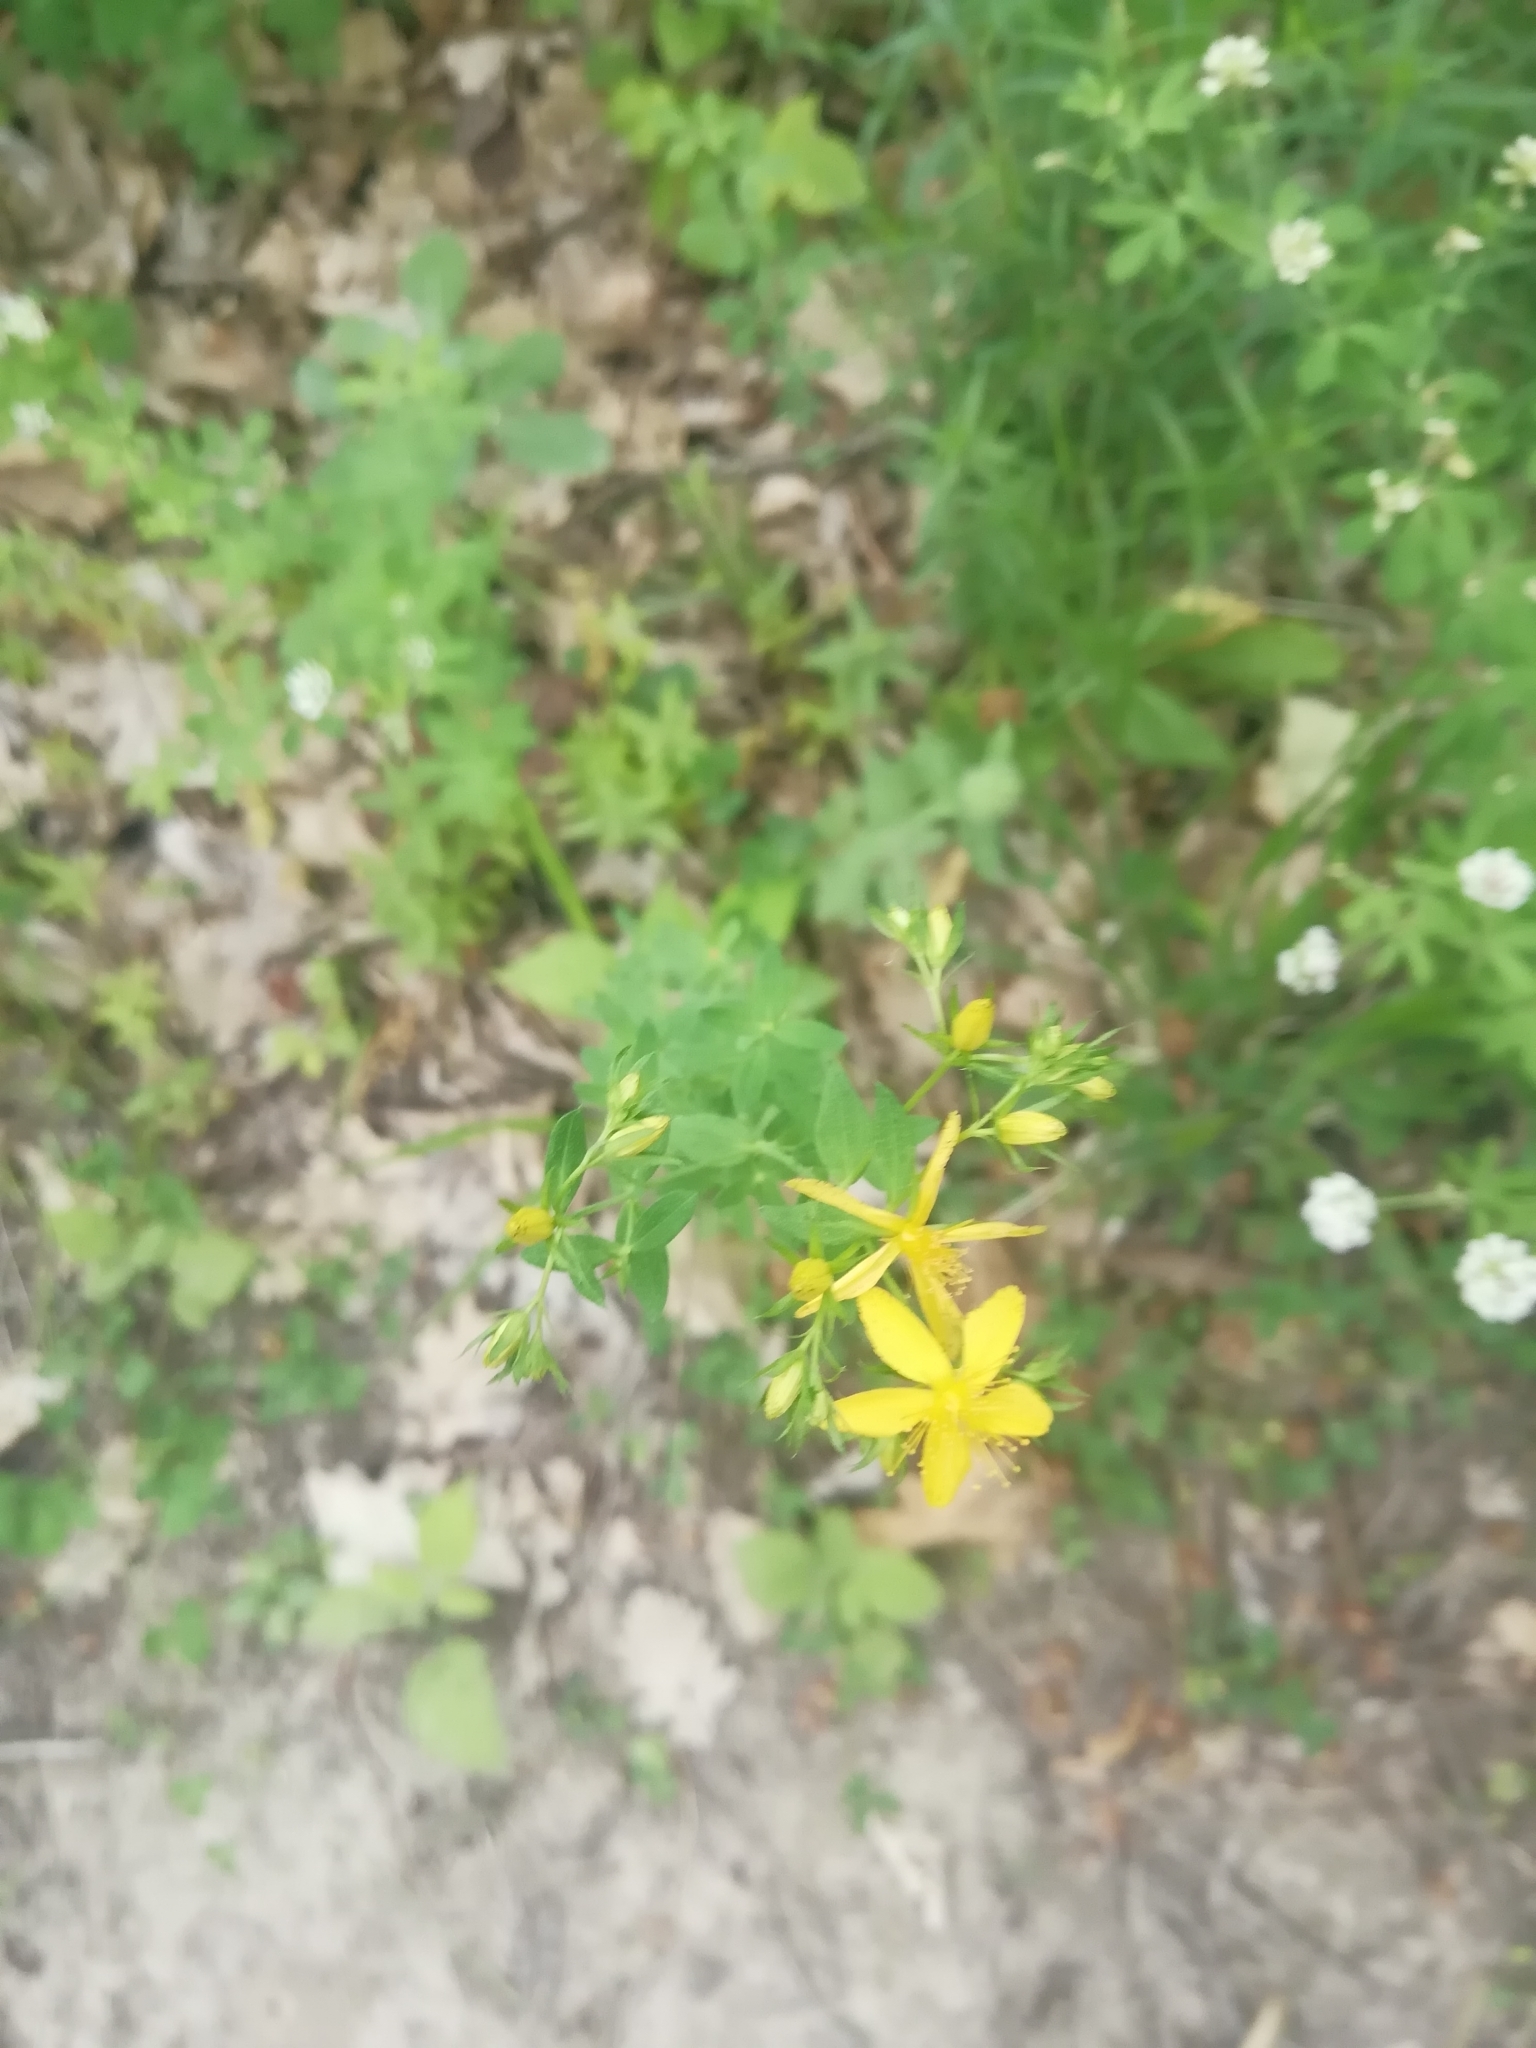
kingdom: Plantae
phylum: Tracheophyta
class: Magnoliopsida
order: Malpighiales
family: Hypericaceae
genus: Hypericum
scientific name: Hypericum perforatum
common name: Common st. johnswort
